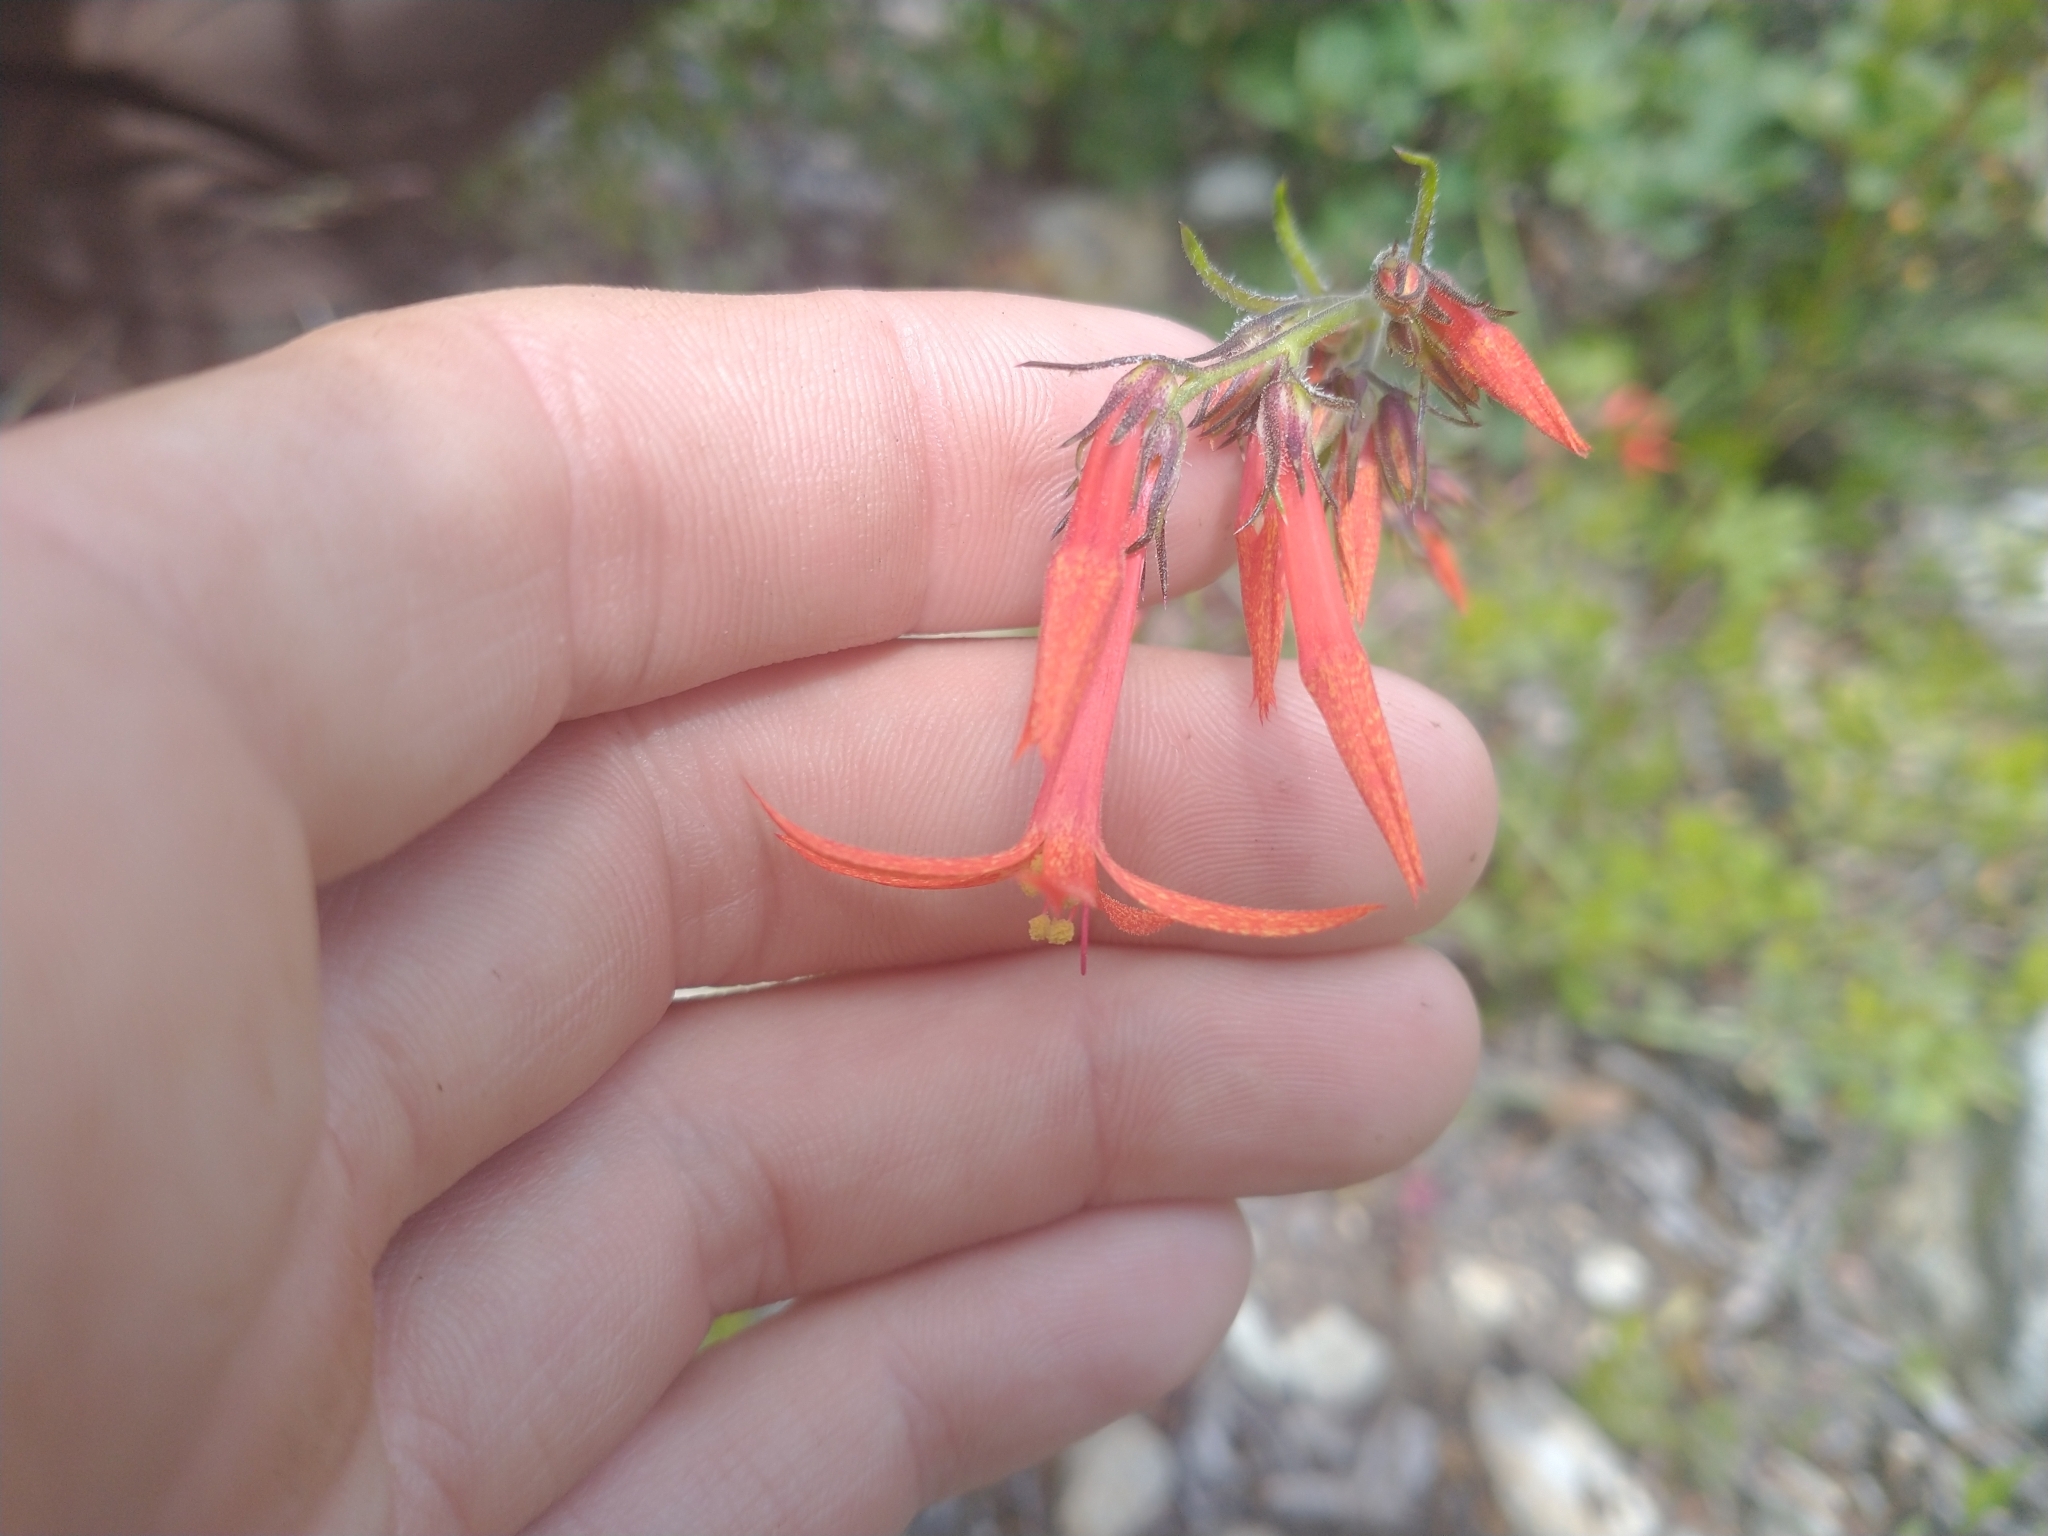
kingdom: Plantae
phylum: Tracheophyta
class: Magnoliopsida
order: Ericales
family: Polemoniaceae
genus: Ipomopsis
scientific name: Ipomopsis aggregata
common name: Scarlet gilia
